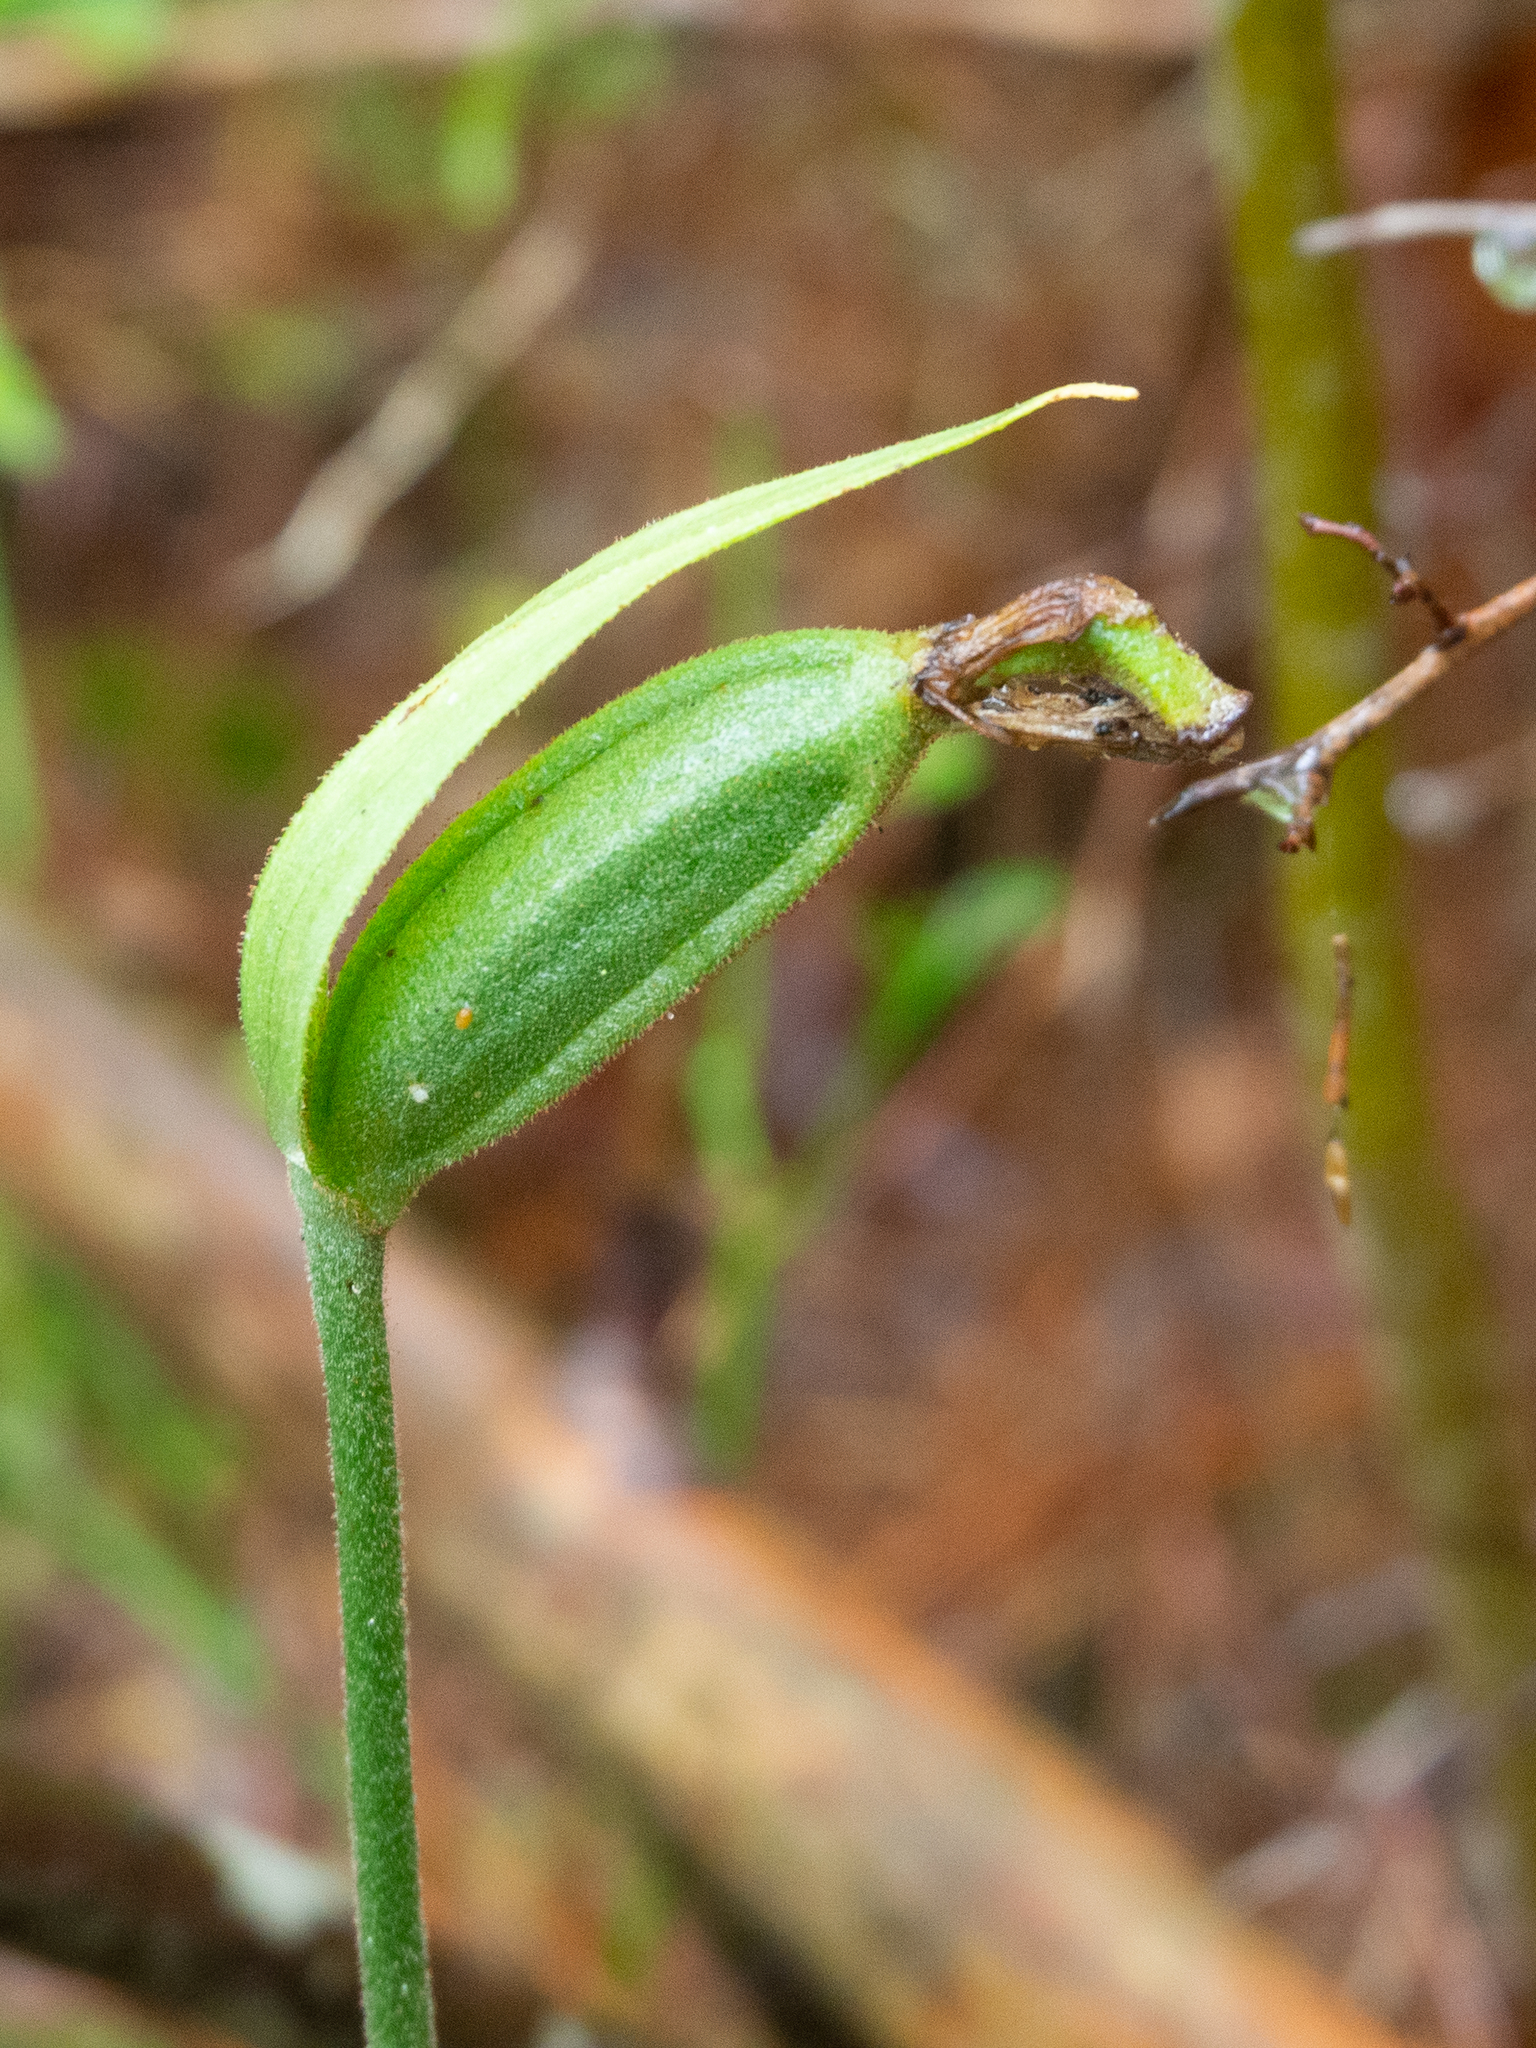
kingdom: Plantae
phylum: Tracheophyta
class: Liliopsida
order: Asparagales
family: Orchidaceae
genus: Cypripedium
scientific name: Cypripedium acaule
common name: Pink lady's-slipper
